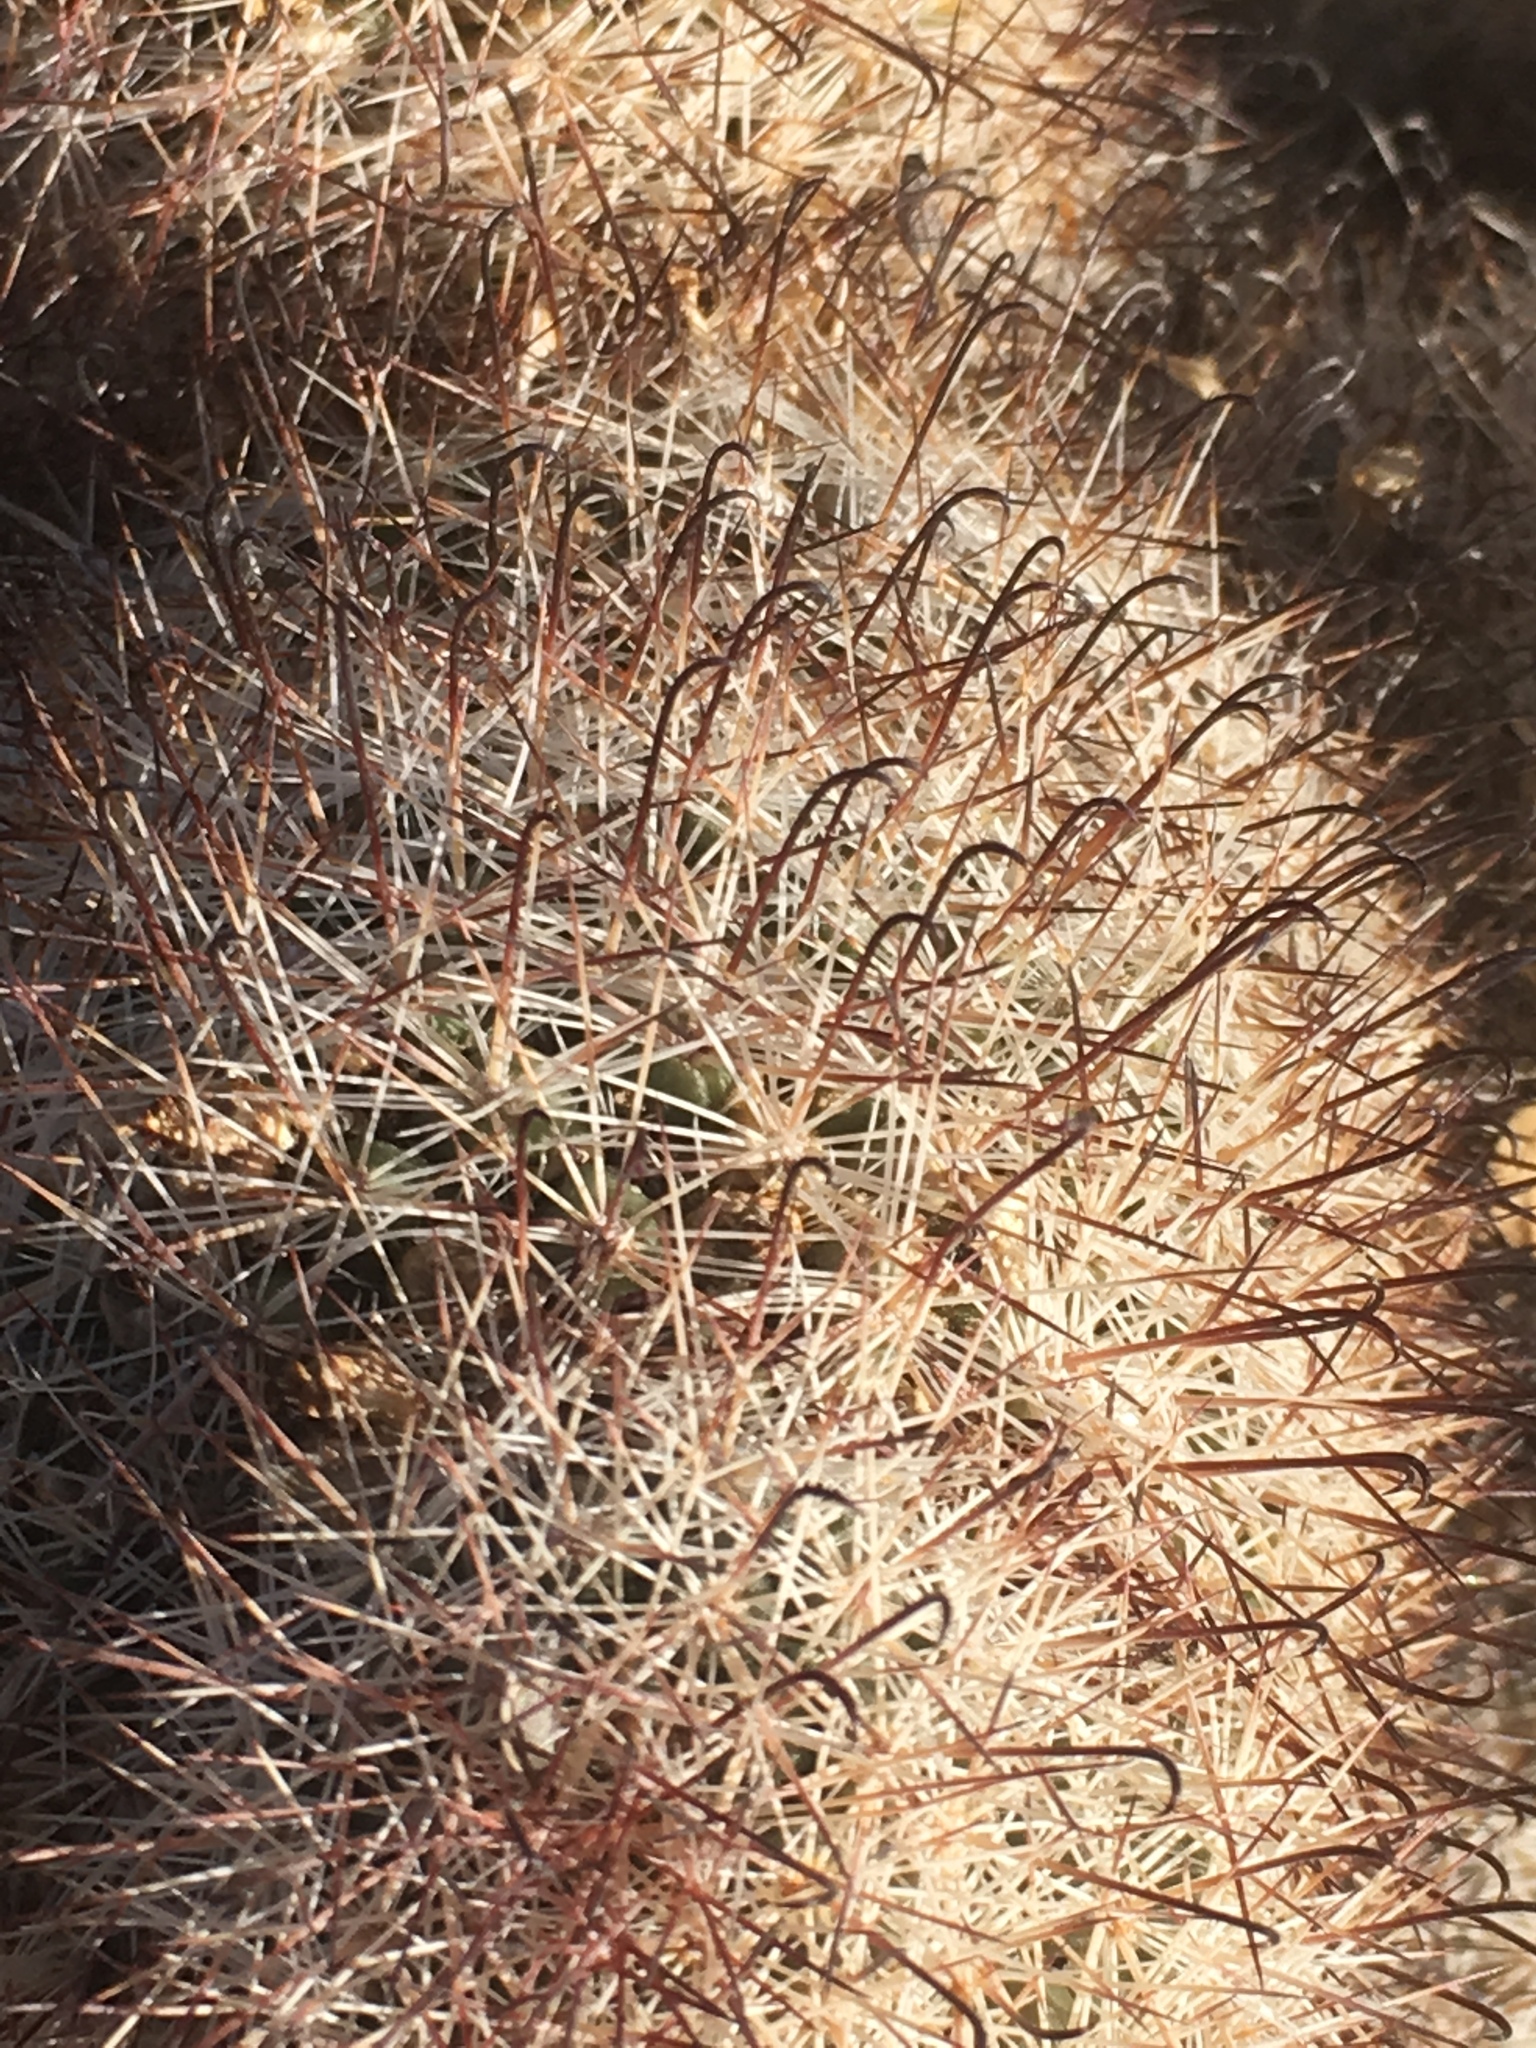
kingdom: Plantae
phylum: Tracheophyta
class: Magnoliopsida
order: Caryophyllales
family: Cactaceae
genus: Cochemiea
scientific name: Cochemiea dioica
